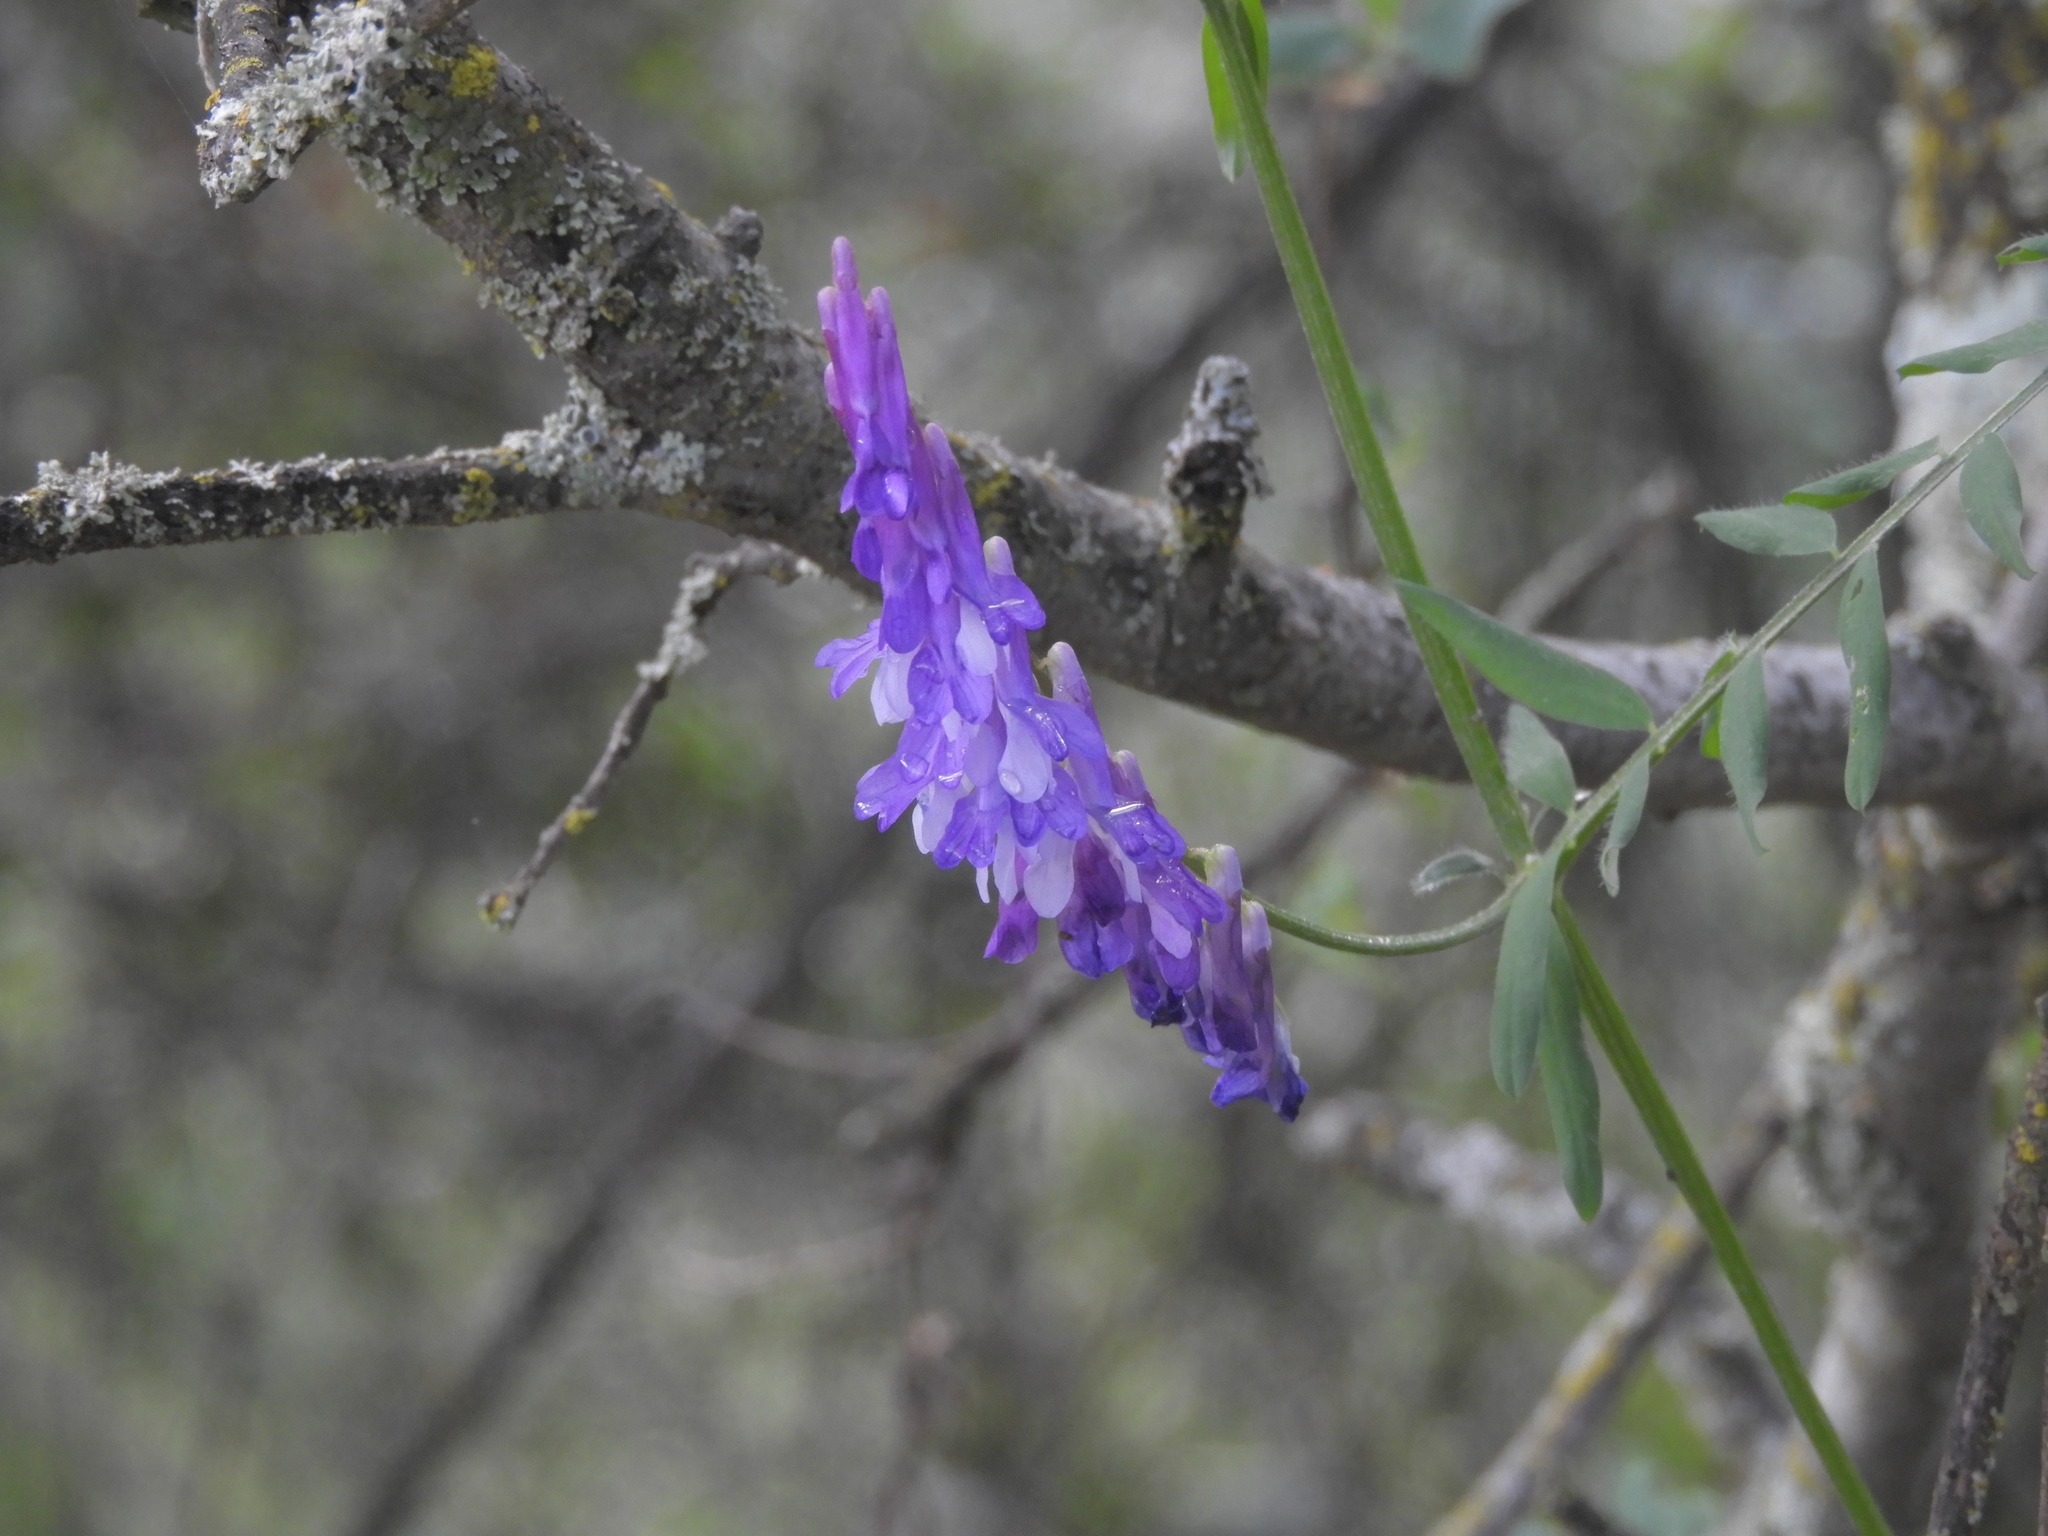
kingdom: Plantae
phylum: Tracheophyta
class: Magnoliopsida
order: Fabales
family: Fabaceae
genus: Vicia
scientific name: Vicia villosa
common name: Fodder vetch
